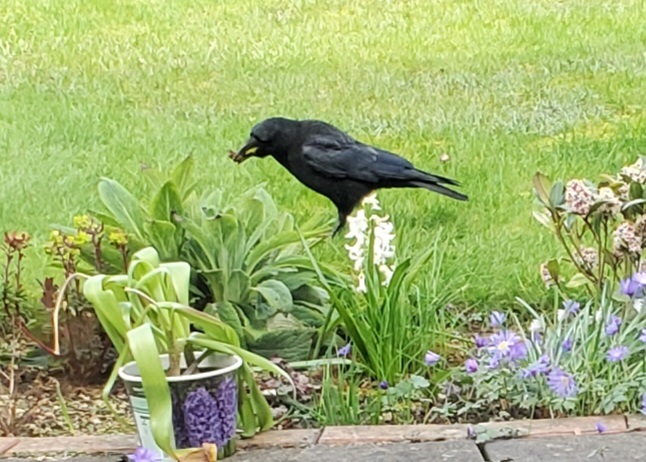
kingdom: Animalia
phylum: Chordata
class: Aves
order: Passeriformes
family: Corvidae
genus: Corvus
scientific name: Corvus corone
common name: Carrion crow
